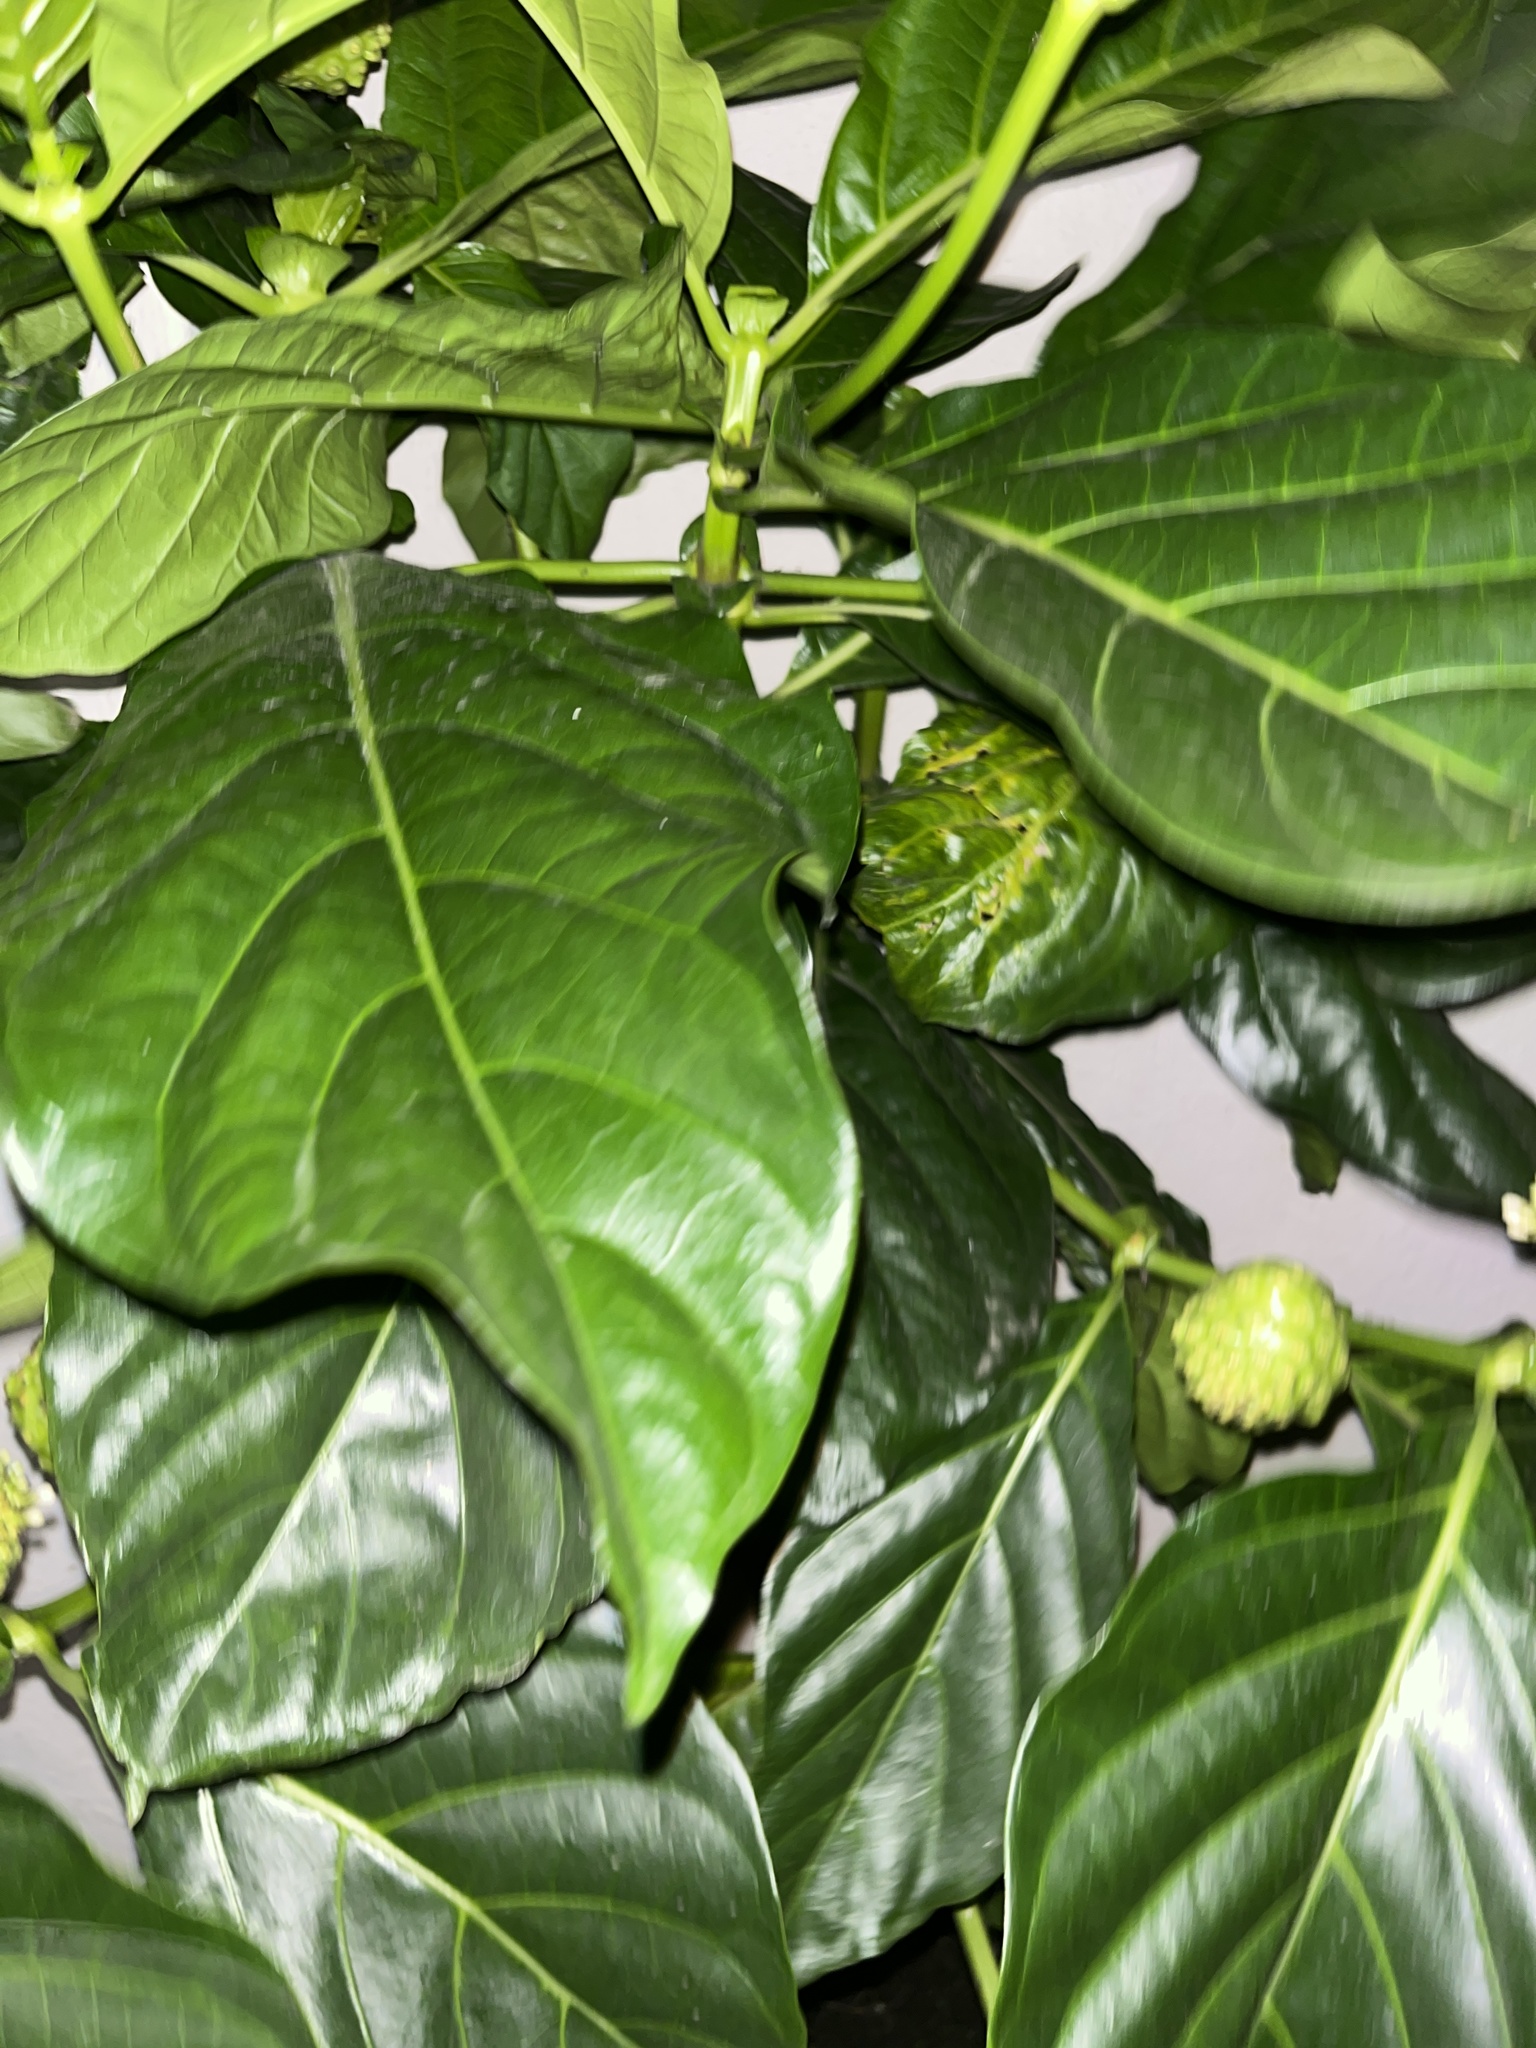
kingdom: Plantae
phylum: Tracheophyta
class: Magnoliopsida
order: Gentianales
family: Rubiaceae
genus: Morinda
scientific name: Morinda citrifolia
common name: Indian-mulberry
